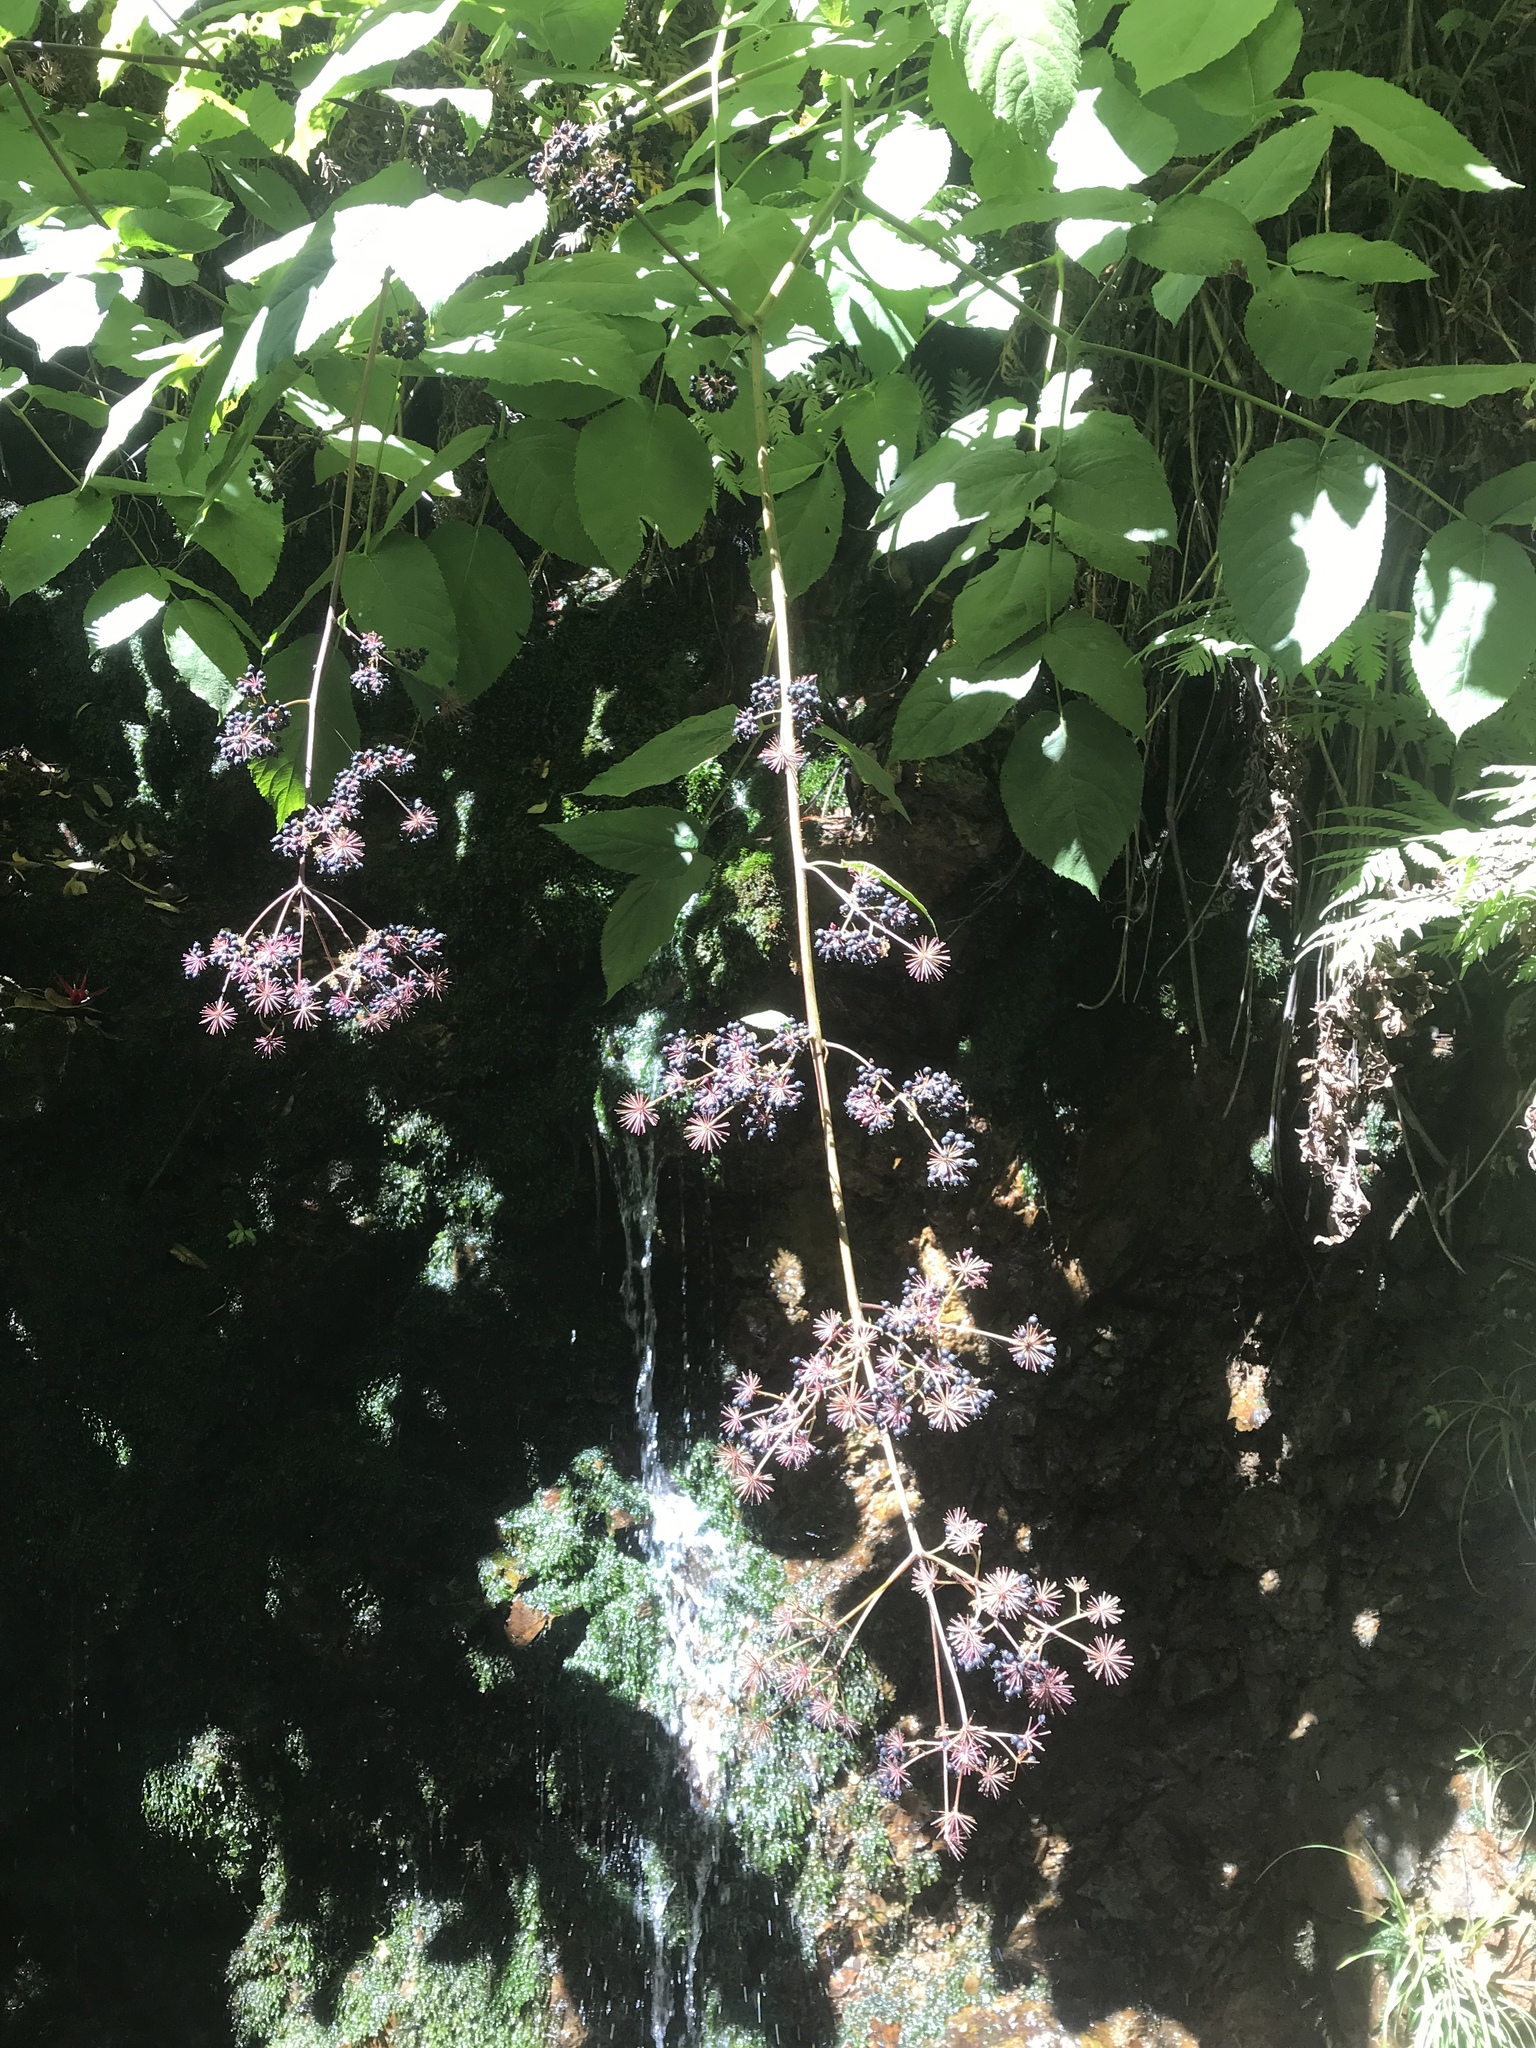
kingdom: Plantae
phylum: Tracheophyta
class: Magnoliopsida
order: Apiales
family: Araliaceae
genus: Aralia
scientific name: Aralia californica
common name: California-ginseng
